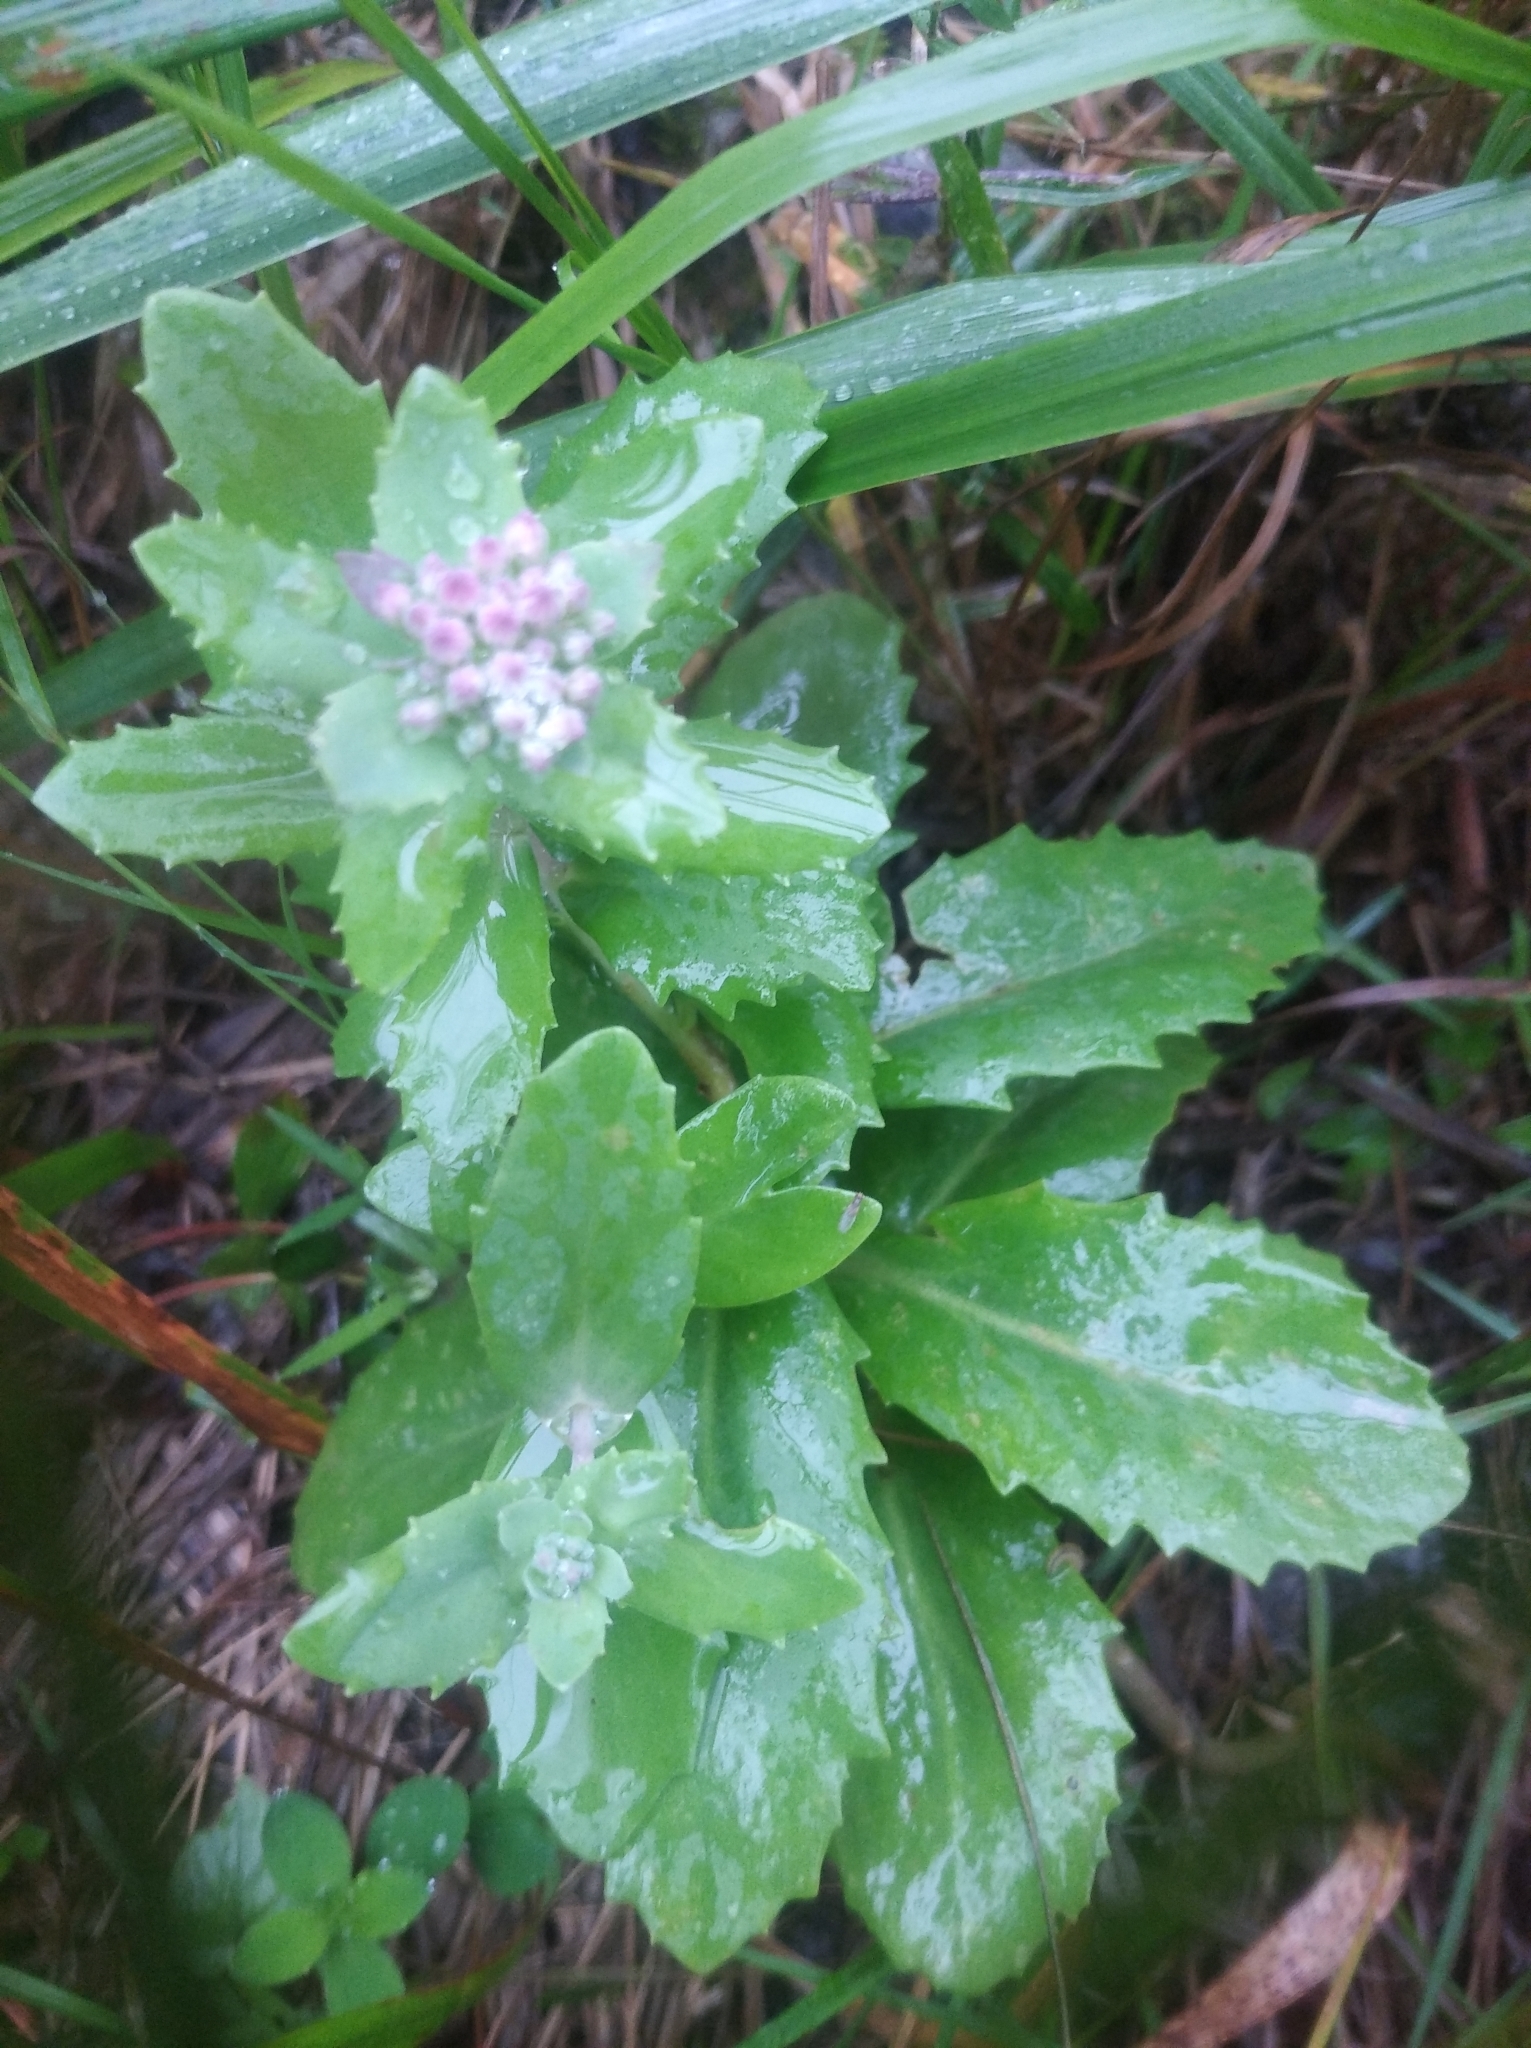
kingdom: Plantae
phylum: Tracheophyta
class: Magnoliopsida
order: Saxifragales
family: Crassulaceae
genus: Hylotelephium
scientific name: Hylotelephium telephium
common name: Live-forever
